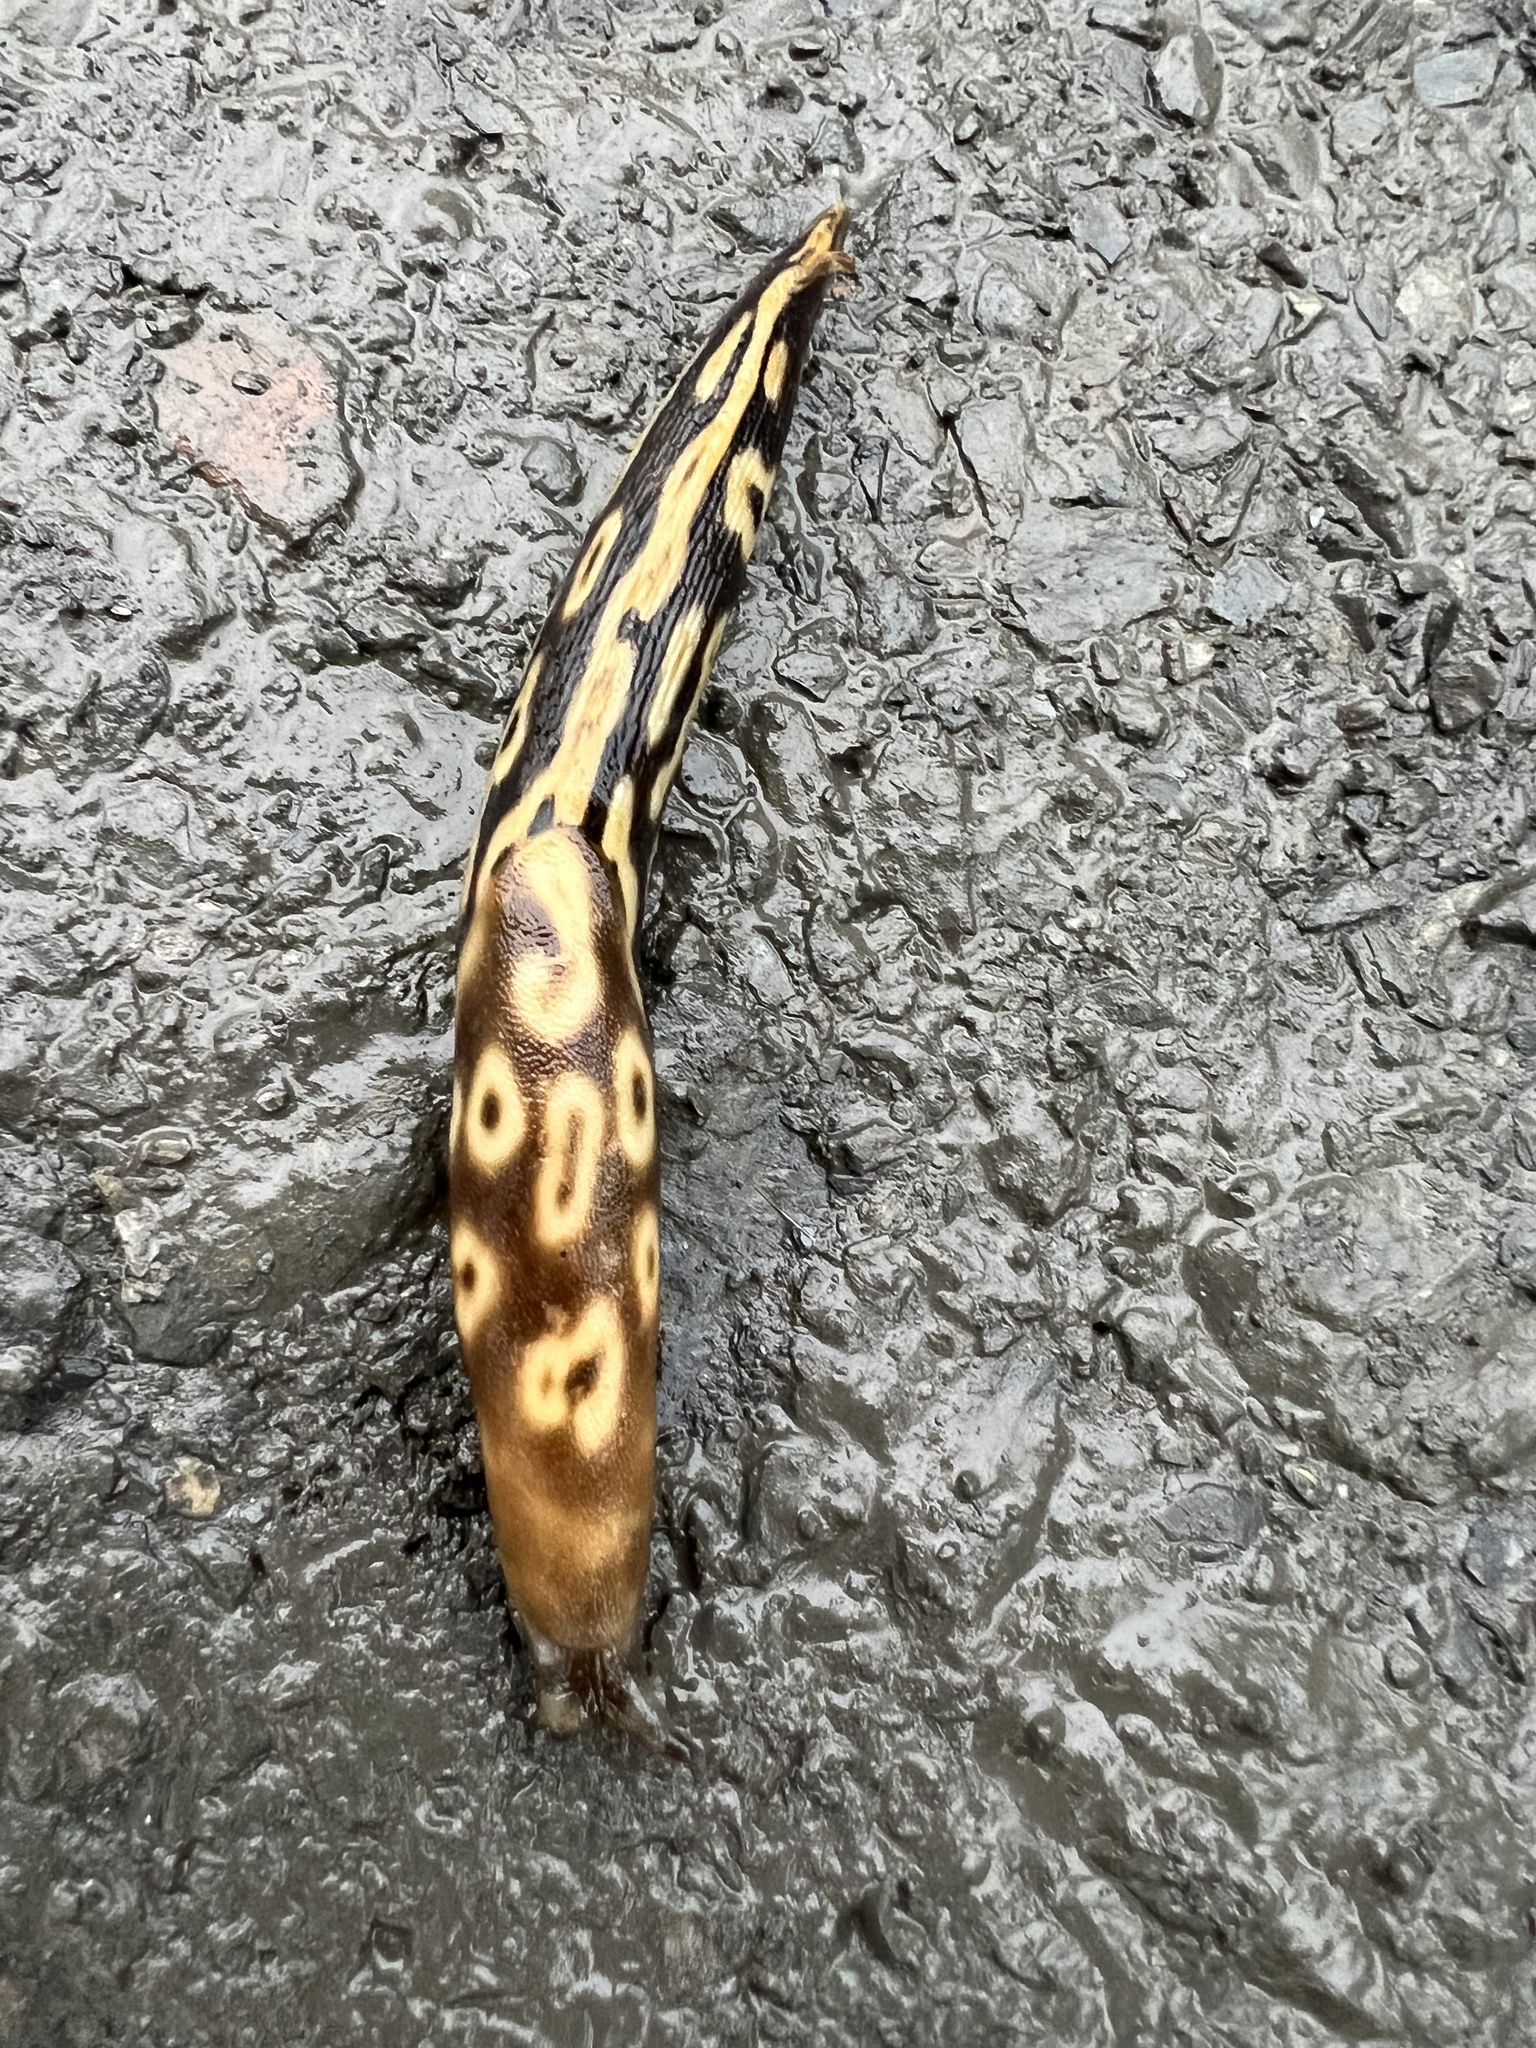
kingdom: Animalia
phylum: Mollusca
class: Gastropoda
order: Stylommatophora
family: Limacidae
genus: Eumilax
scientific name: Eumilax brandti
